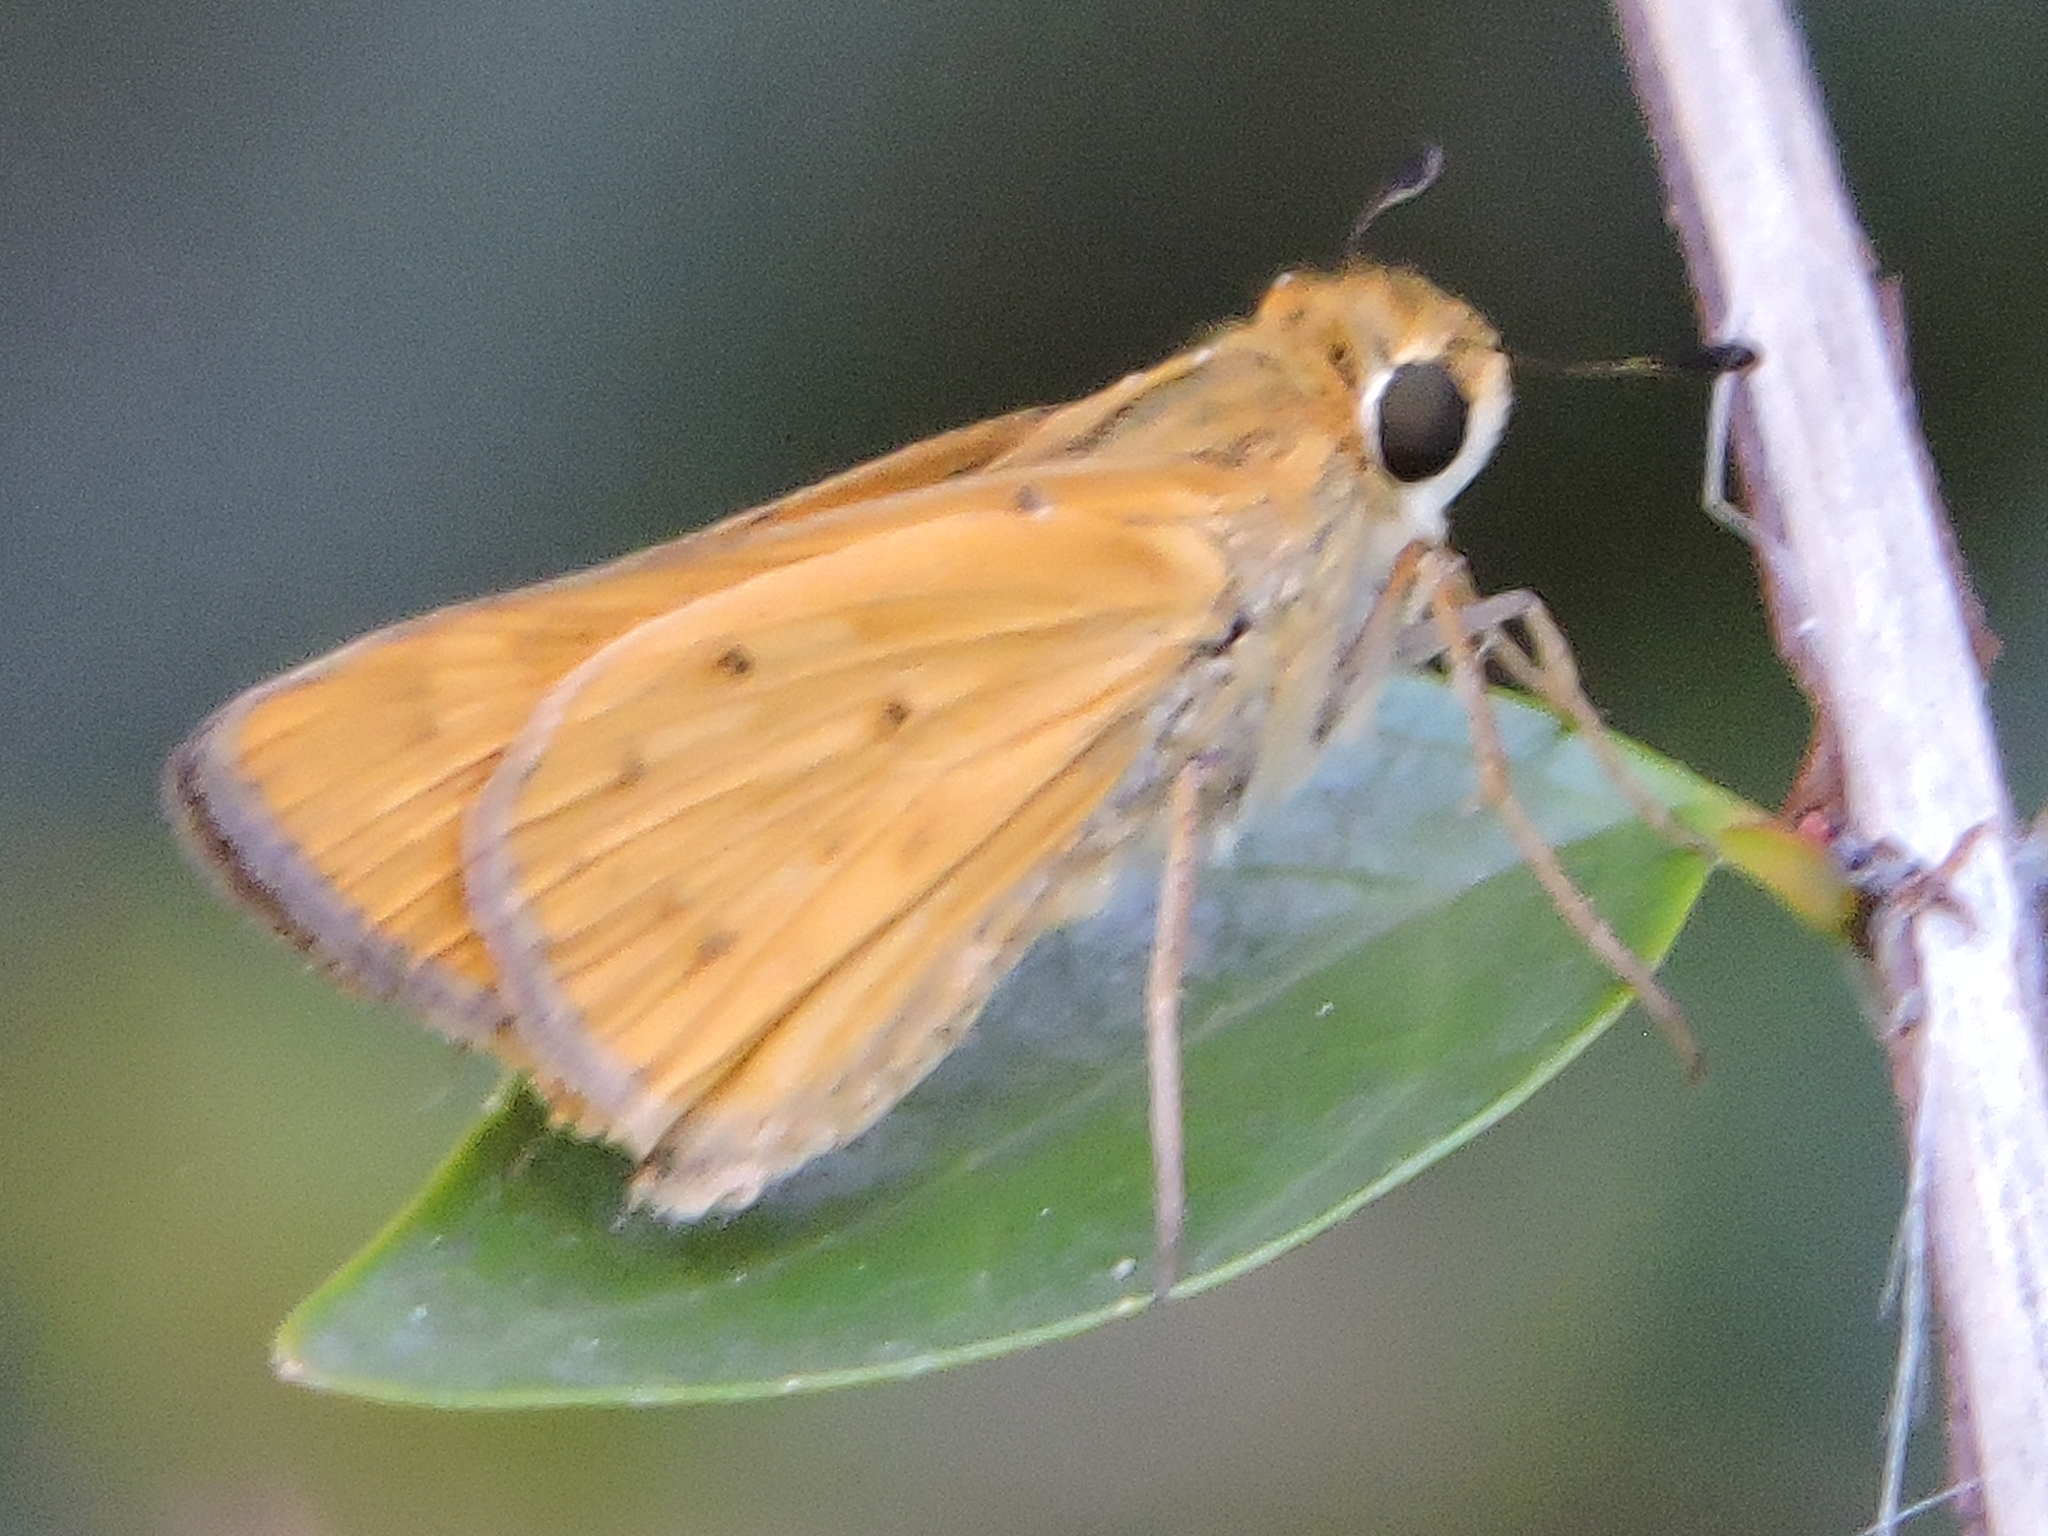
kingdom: Animalia
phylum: Arthropoda
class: Insecta
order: Lepidoptera
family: Hesperiidae
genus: Hylephila
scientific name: Hylephila phyleus
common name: Fiery skipper
